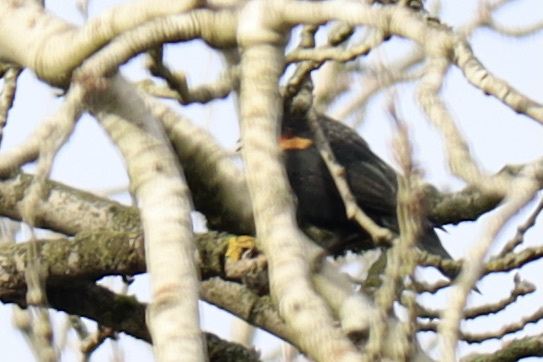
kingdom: Animalia
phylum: Chordata
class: Aves
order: Passeriformes
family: Icteridae
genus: Agelaius
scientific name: Agelaius phoeniceus
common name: Red-winged blackbird
